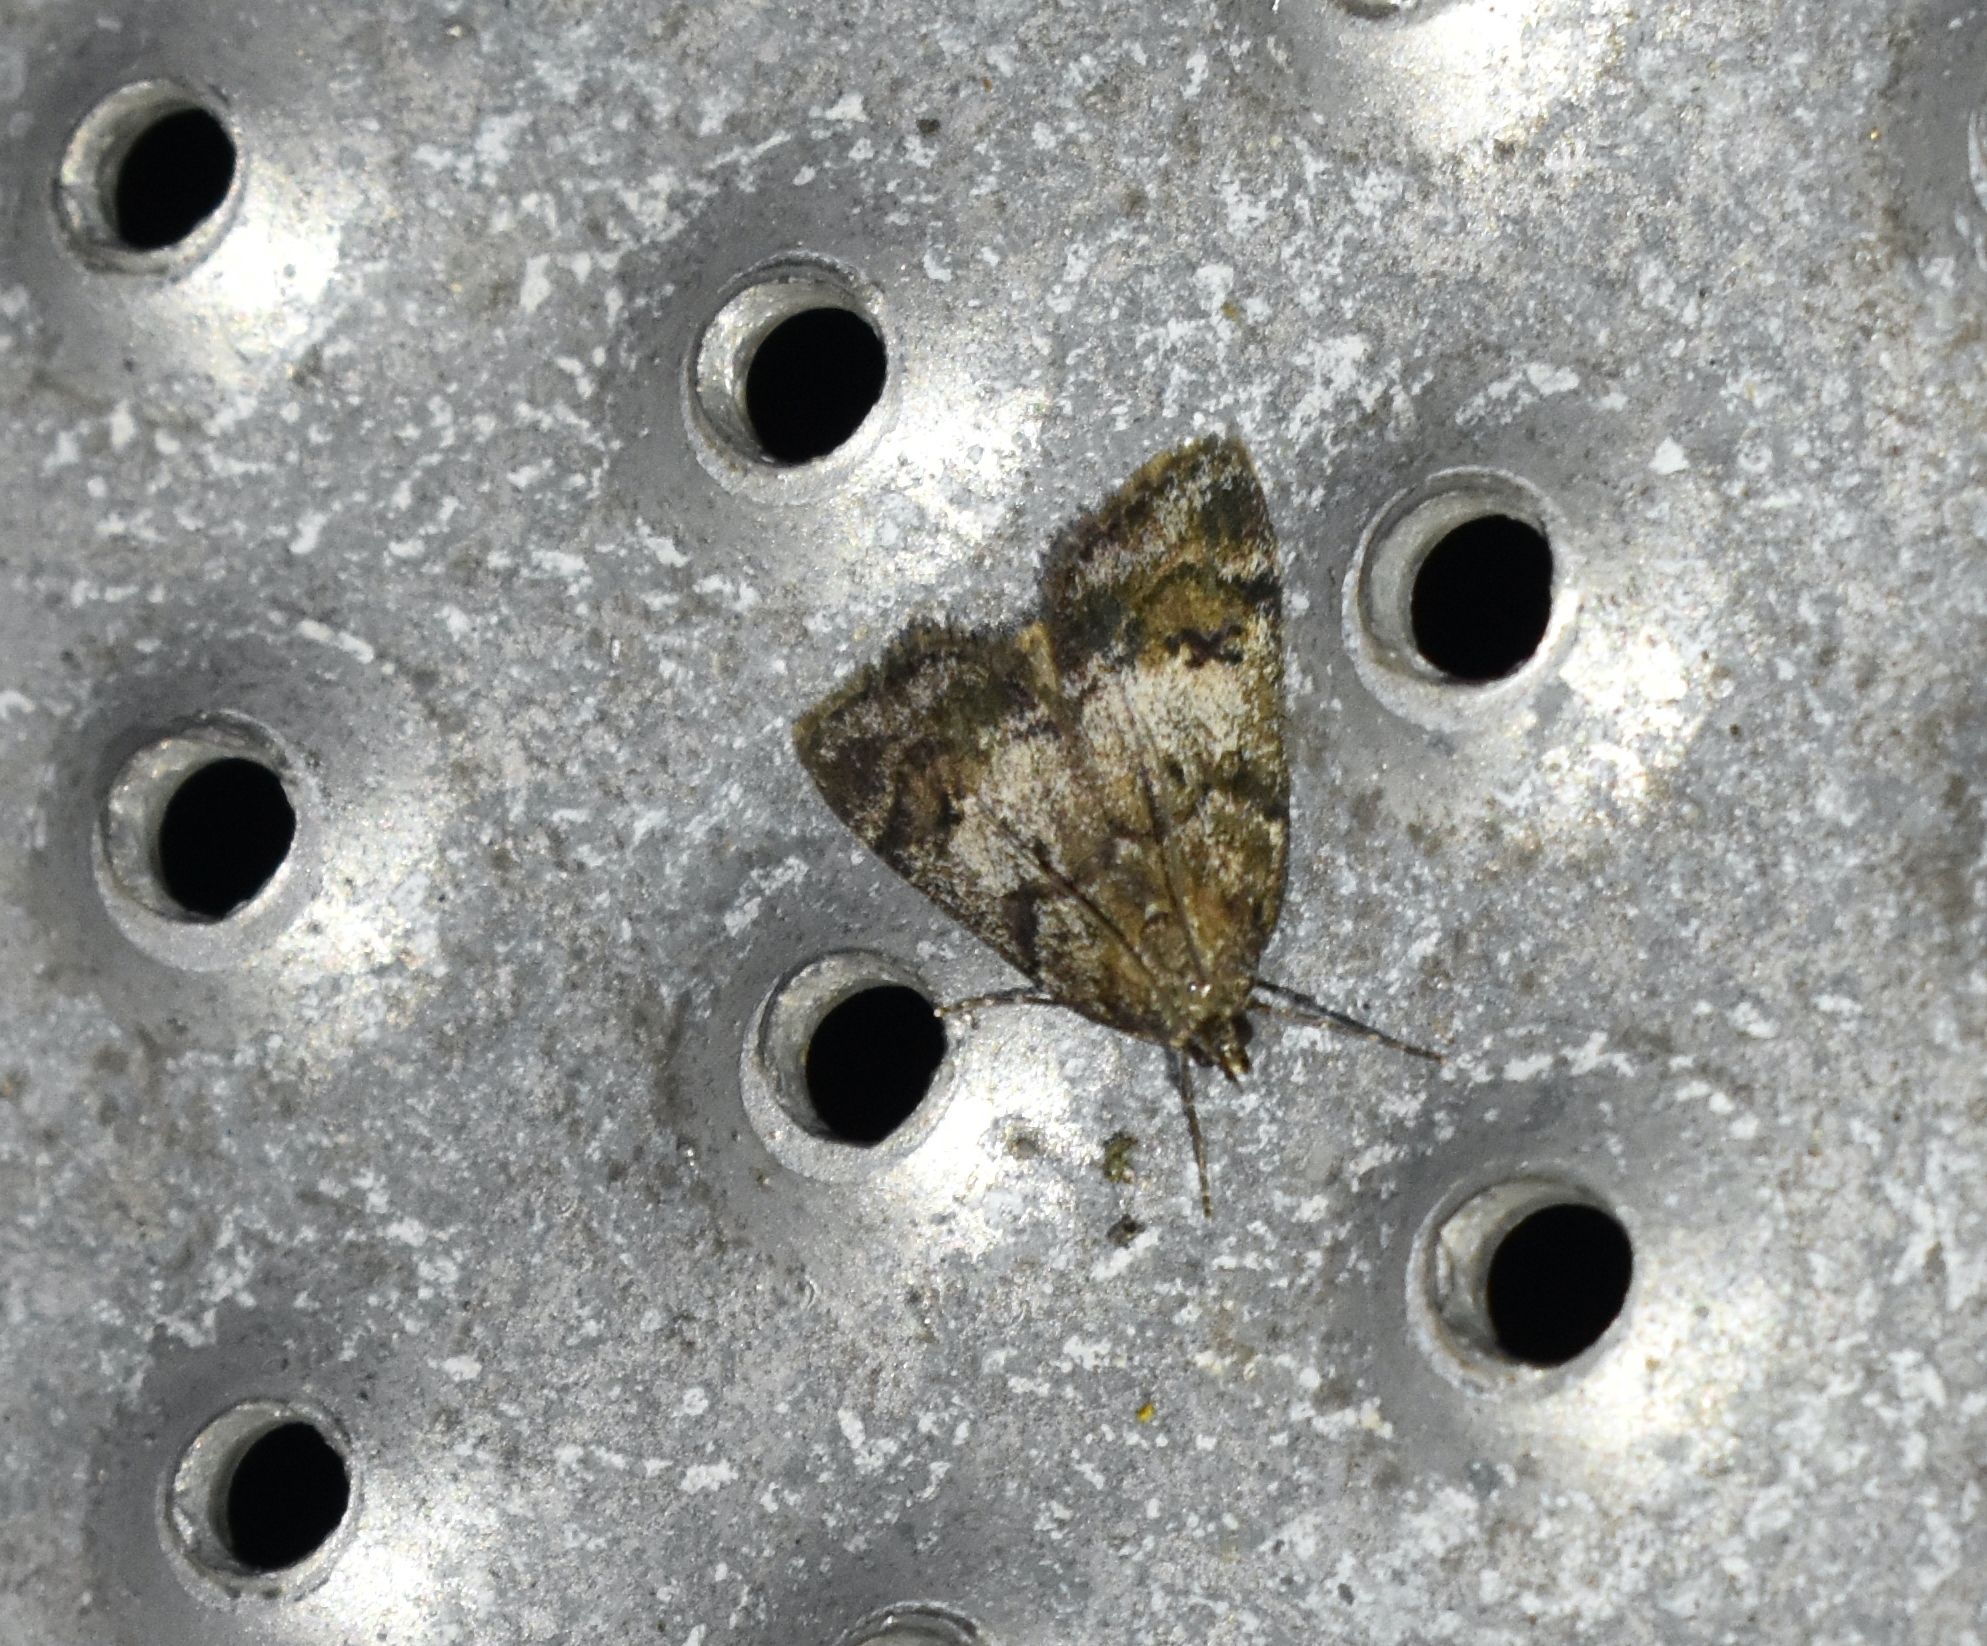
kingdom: Animalia
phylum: Arthropoda
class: Insecta
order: Lepidoptera
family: Crambidae
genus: Gesneria
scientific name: Gesneria centuriella
